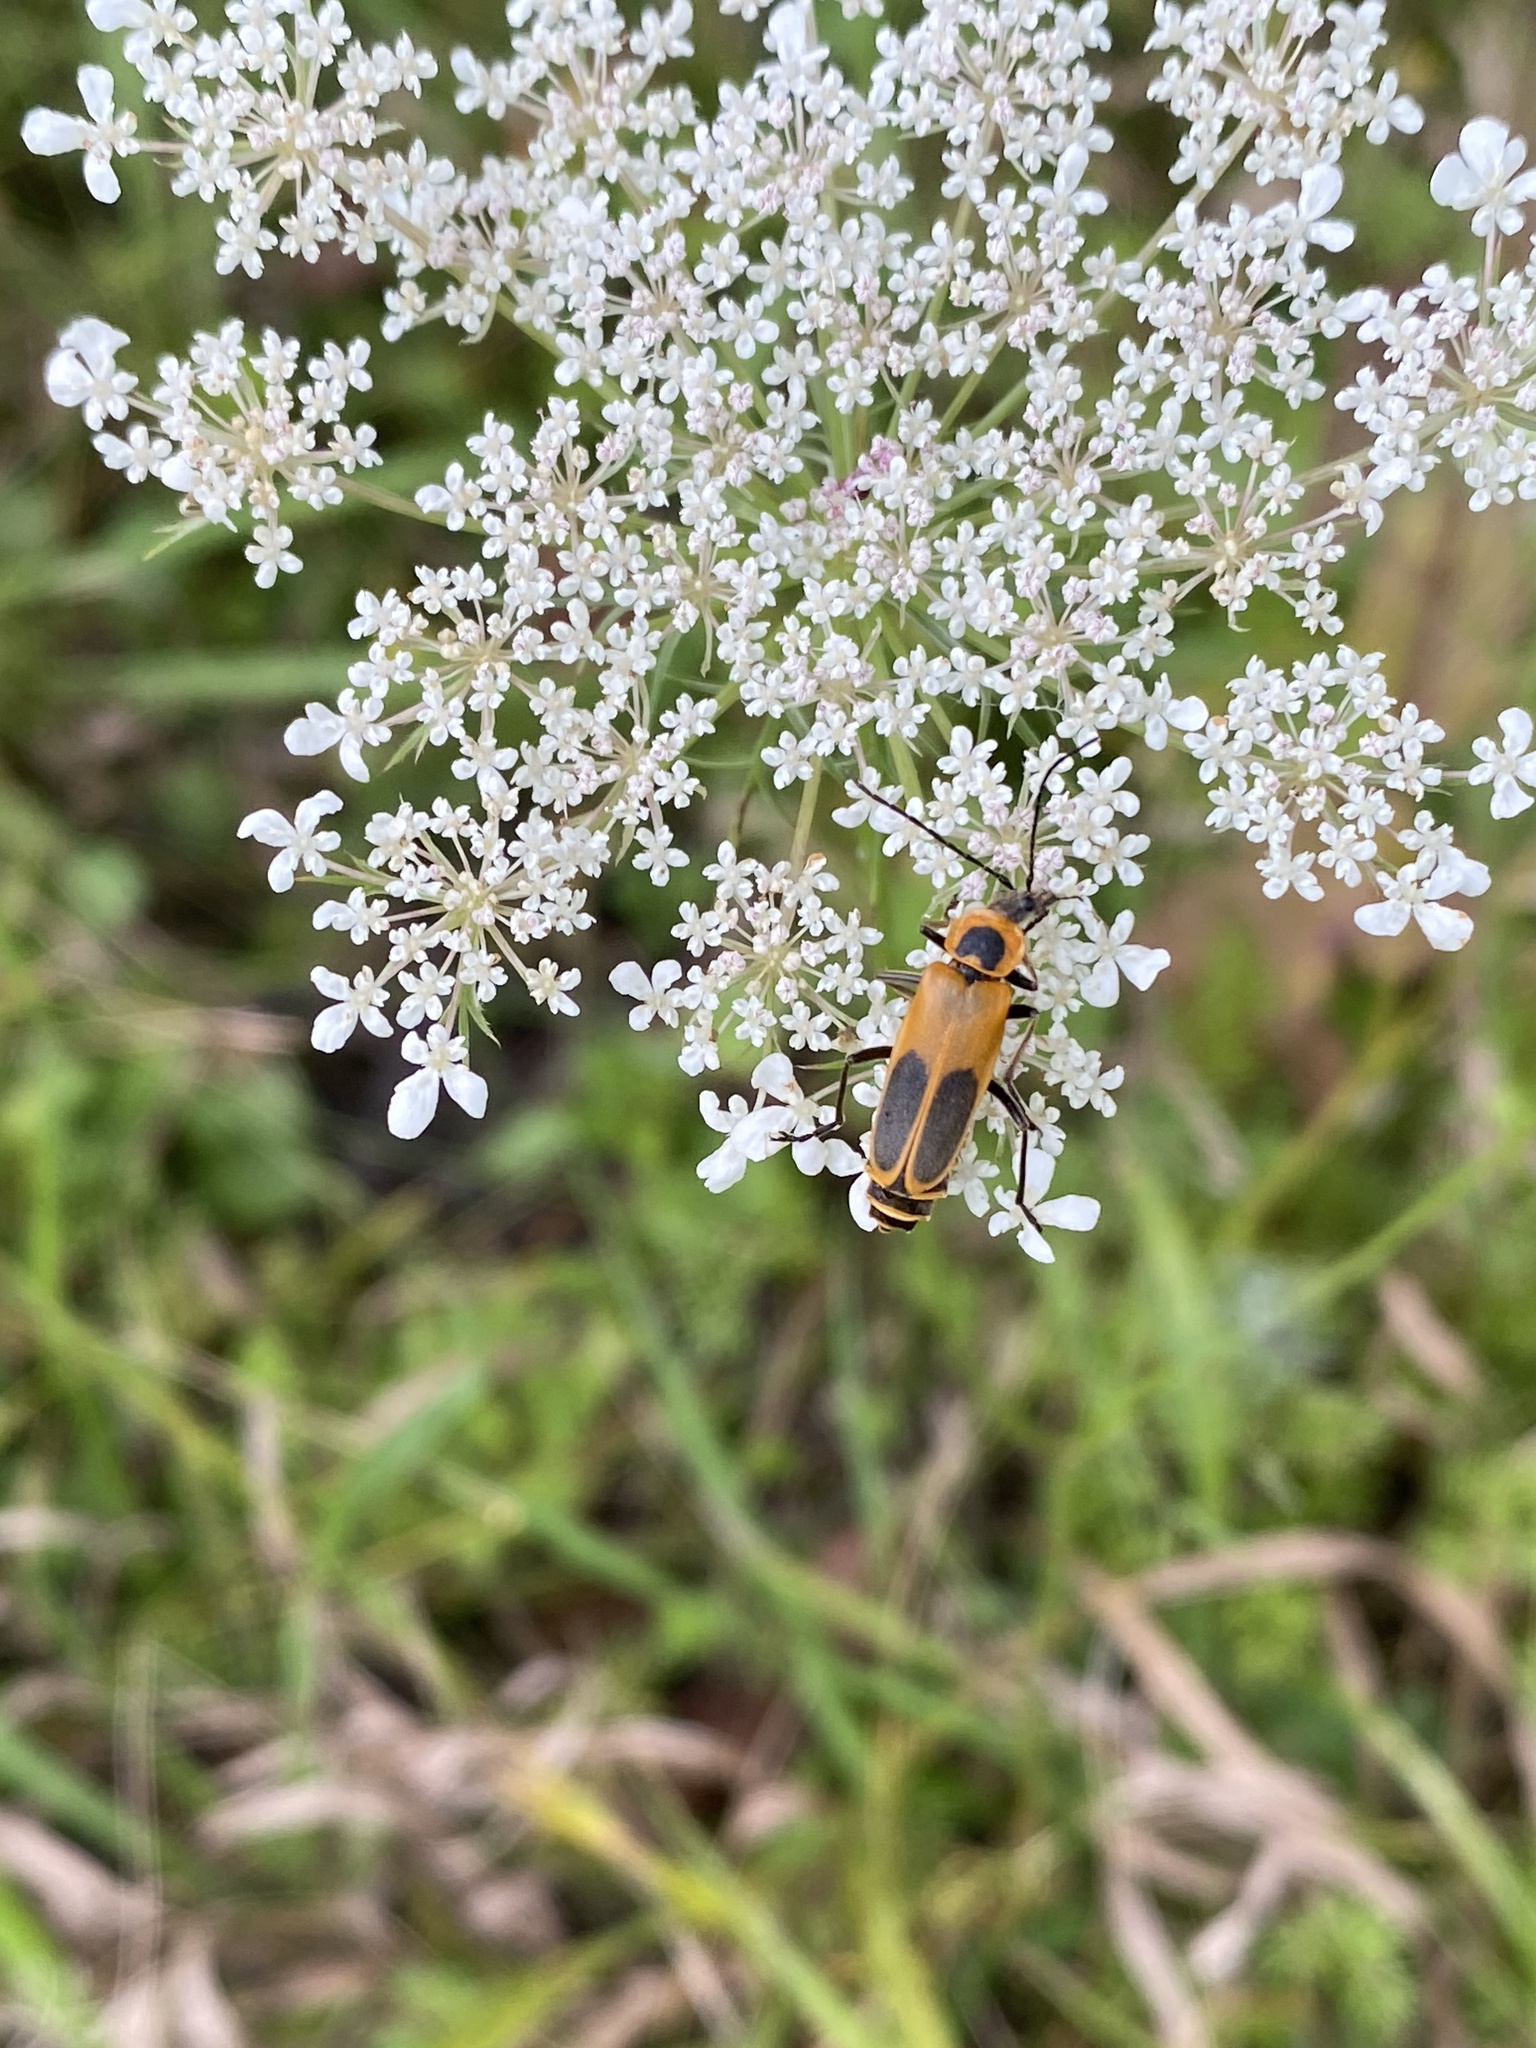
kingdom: Animalia
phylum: Arthropoda
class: Insecta
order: Coleoptera
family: Cantharidae
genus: Chauliognathus
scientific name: Chauliognathus pensylvanicus
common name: Goldenrod soldier beetle
